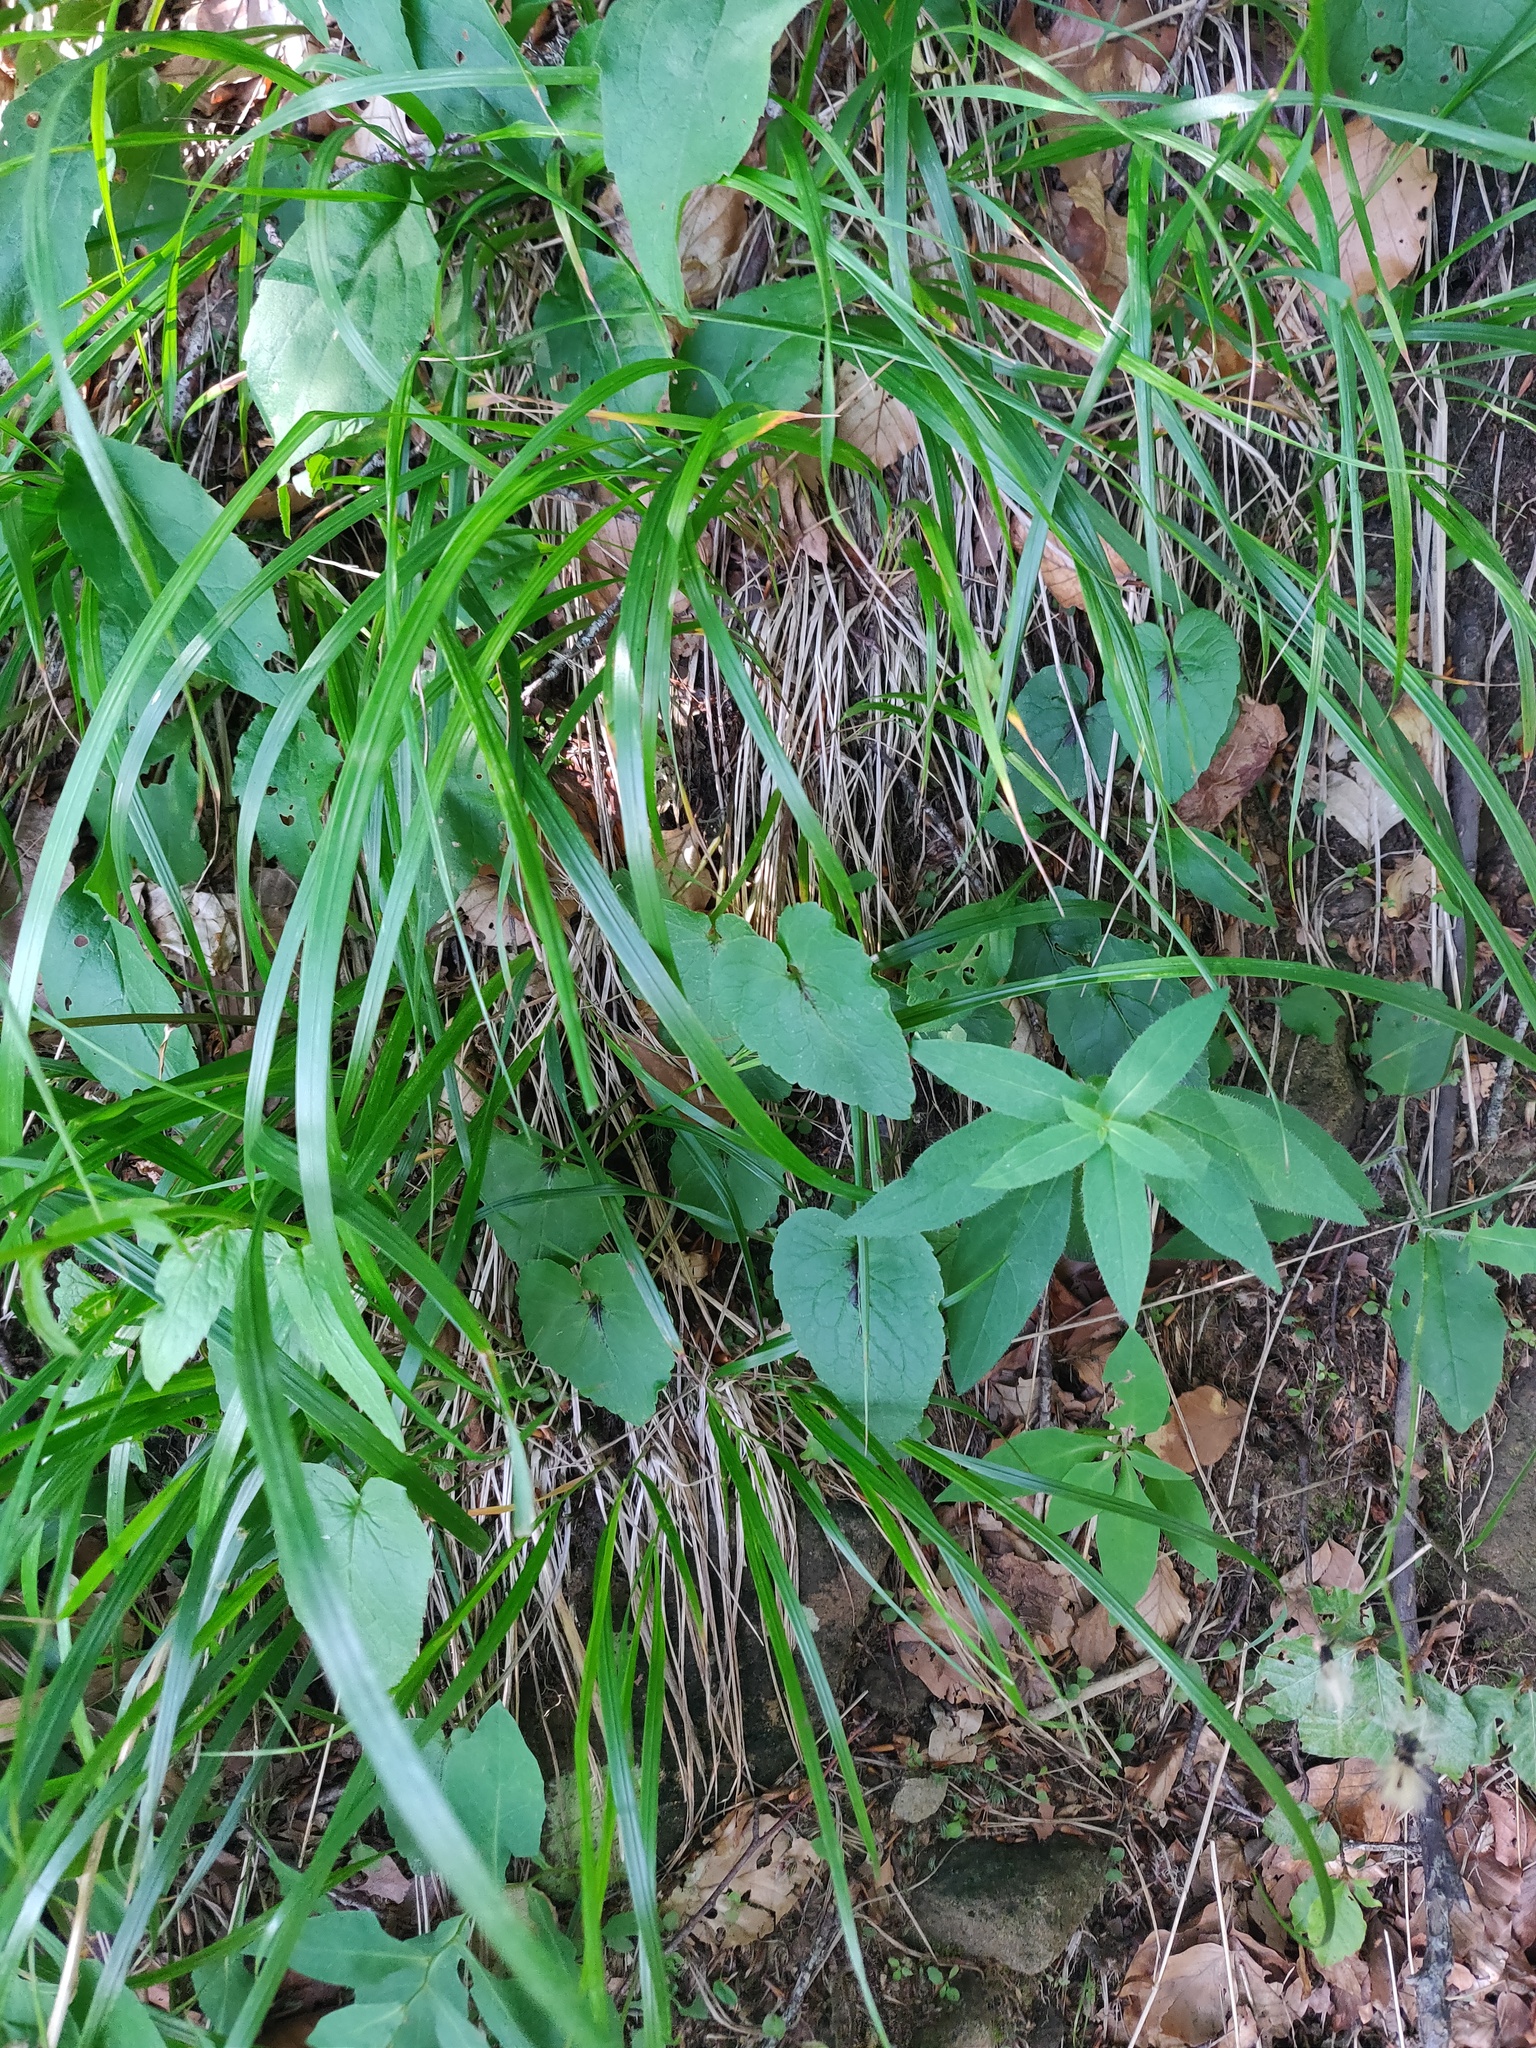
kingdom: Plantae
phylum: Tracheophyta
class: Magnoliopsida
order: Asterales
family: Campanulaceae
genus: Phyteuma
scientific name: Phyteuma spicatum
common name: Spiked rampion
